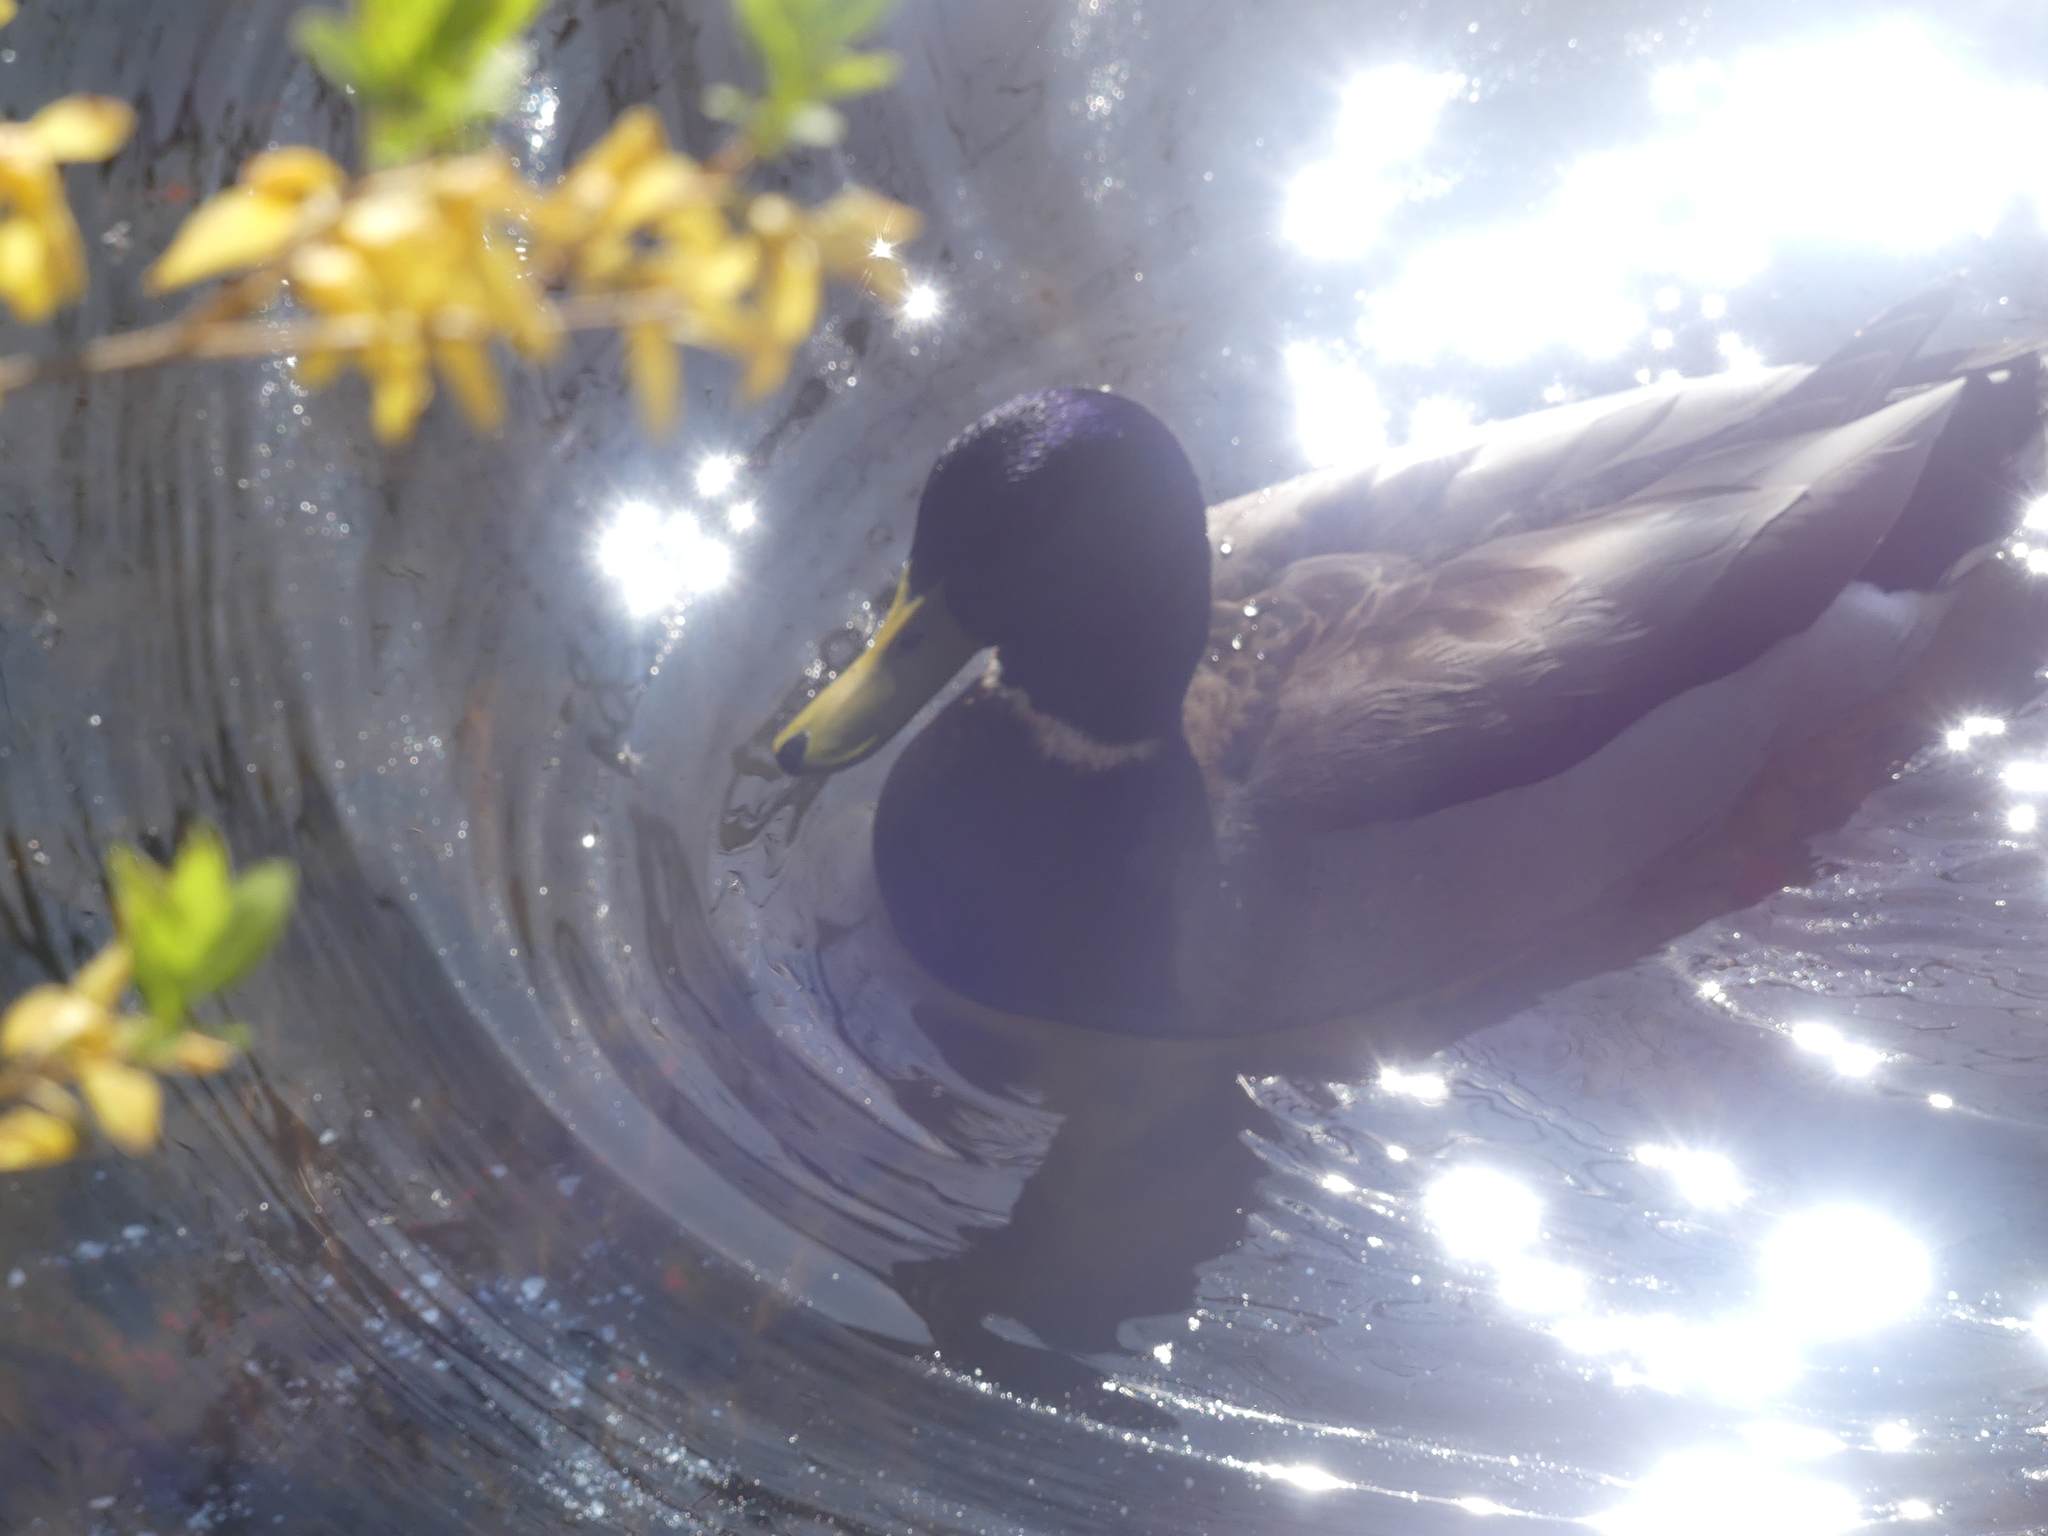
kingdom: Animalia
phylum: Chordata
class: Aves
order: Anseriformes
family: Anatidae
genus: Anas
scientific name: Anas platyrhynchos
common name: Mallard
